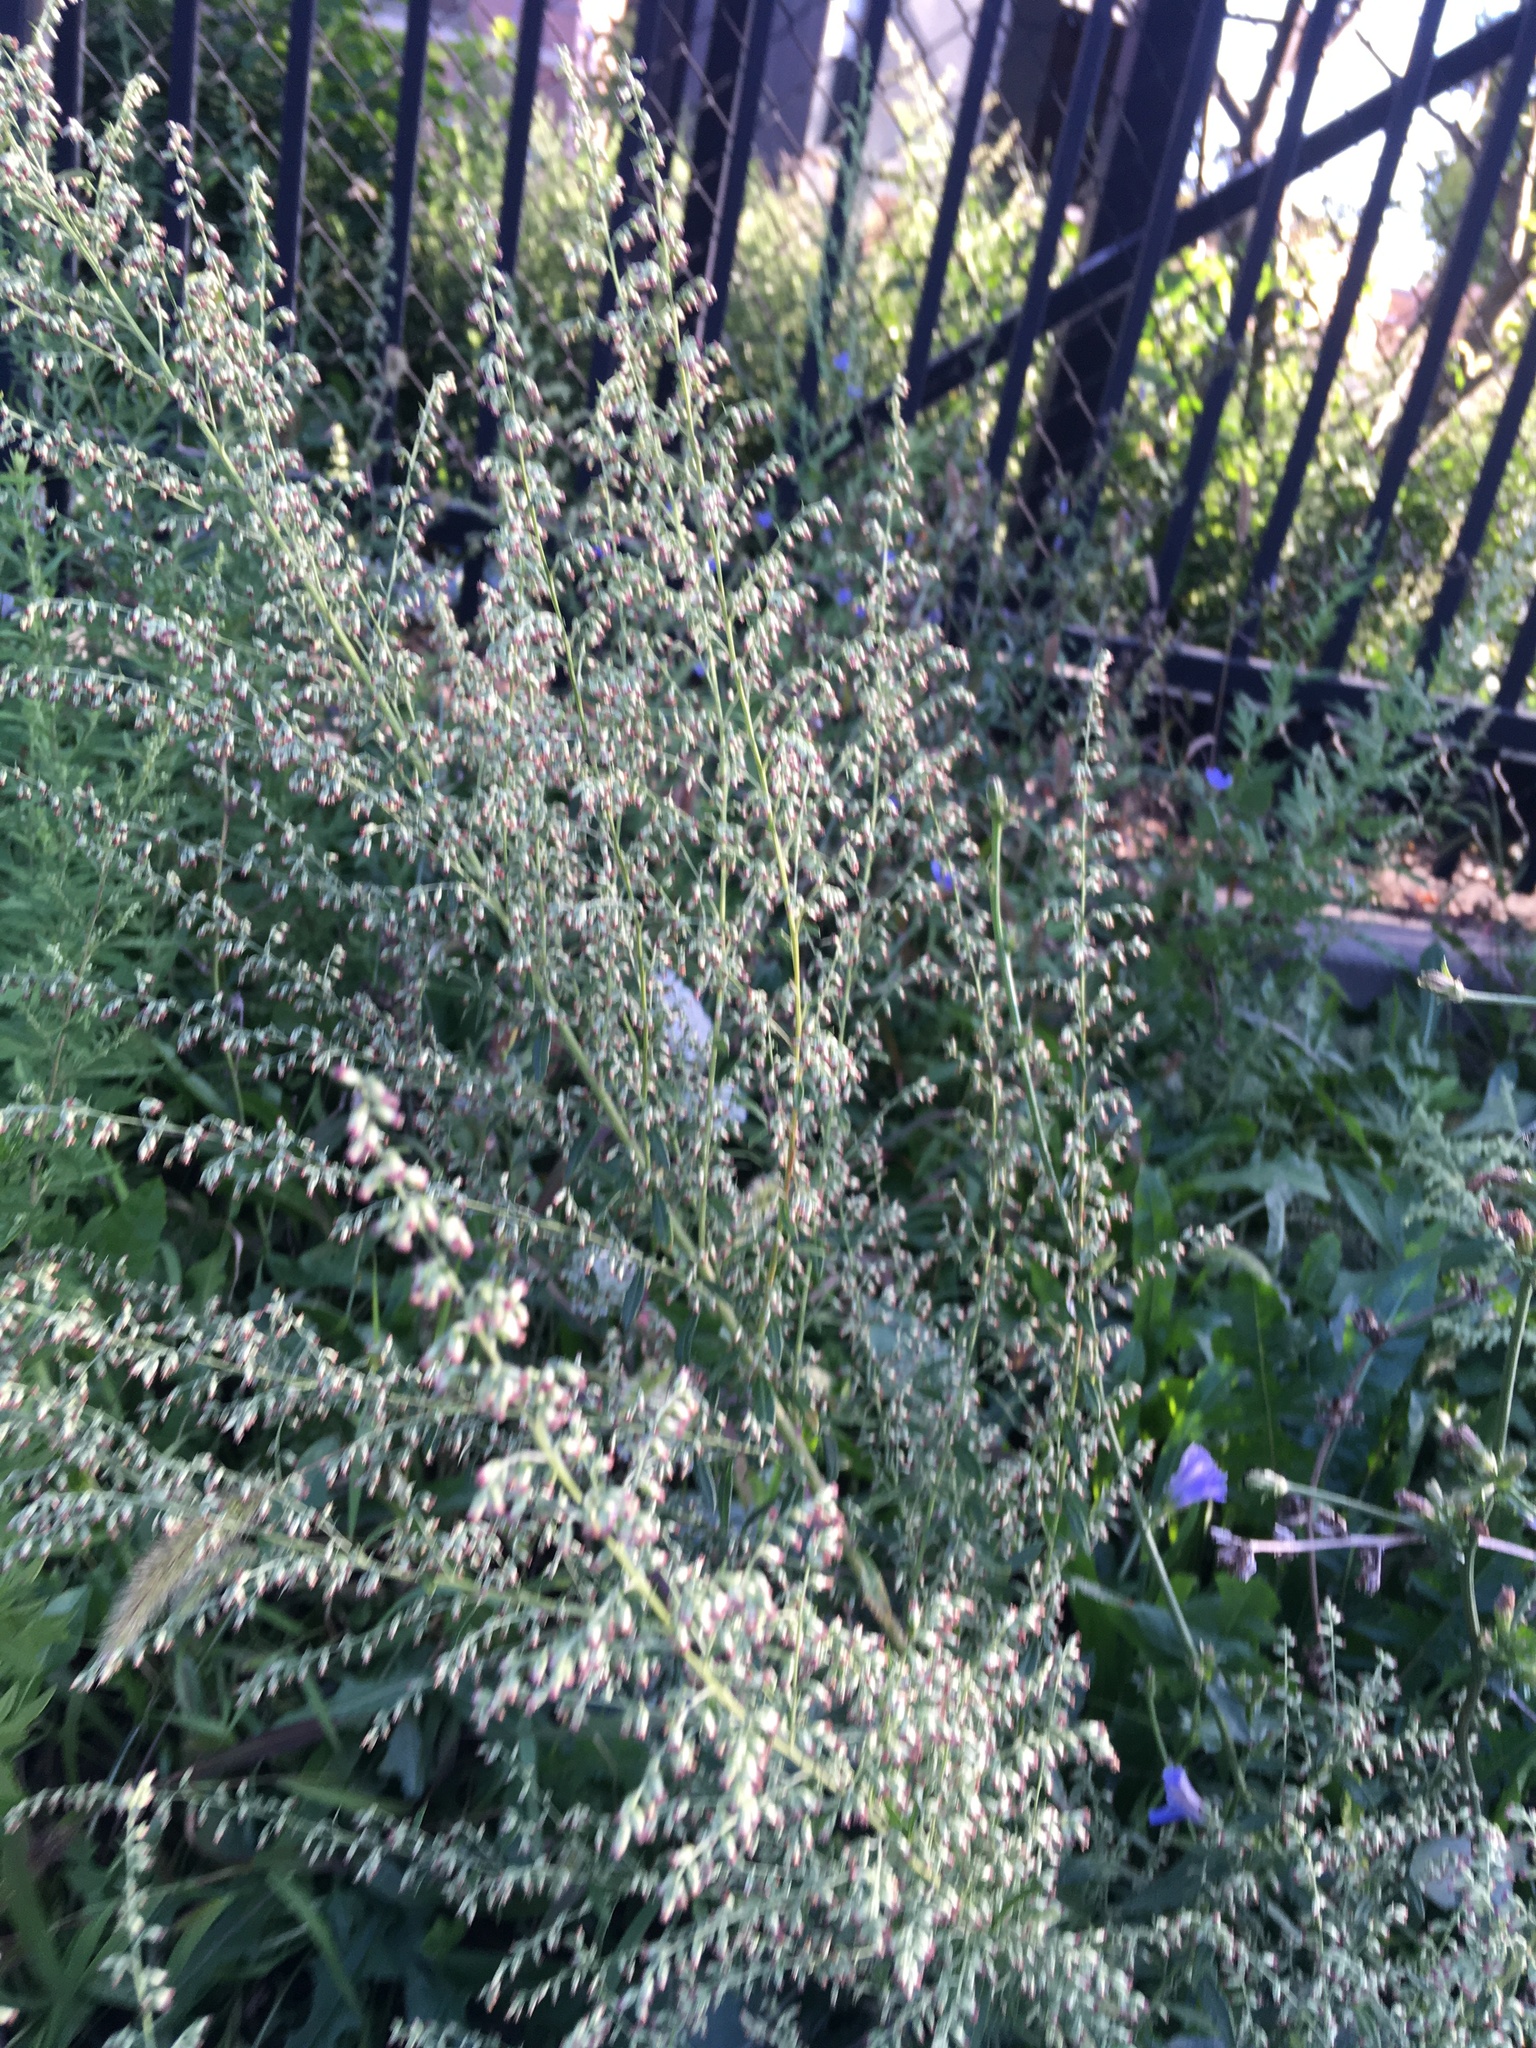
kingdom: Plantae
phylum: Tracheophyta
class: Magnoliopsida
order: Asterales
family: Asteraceae
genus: Artemisia
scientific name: Artemisia vulgaris
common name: Mugwort
